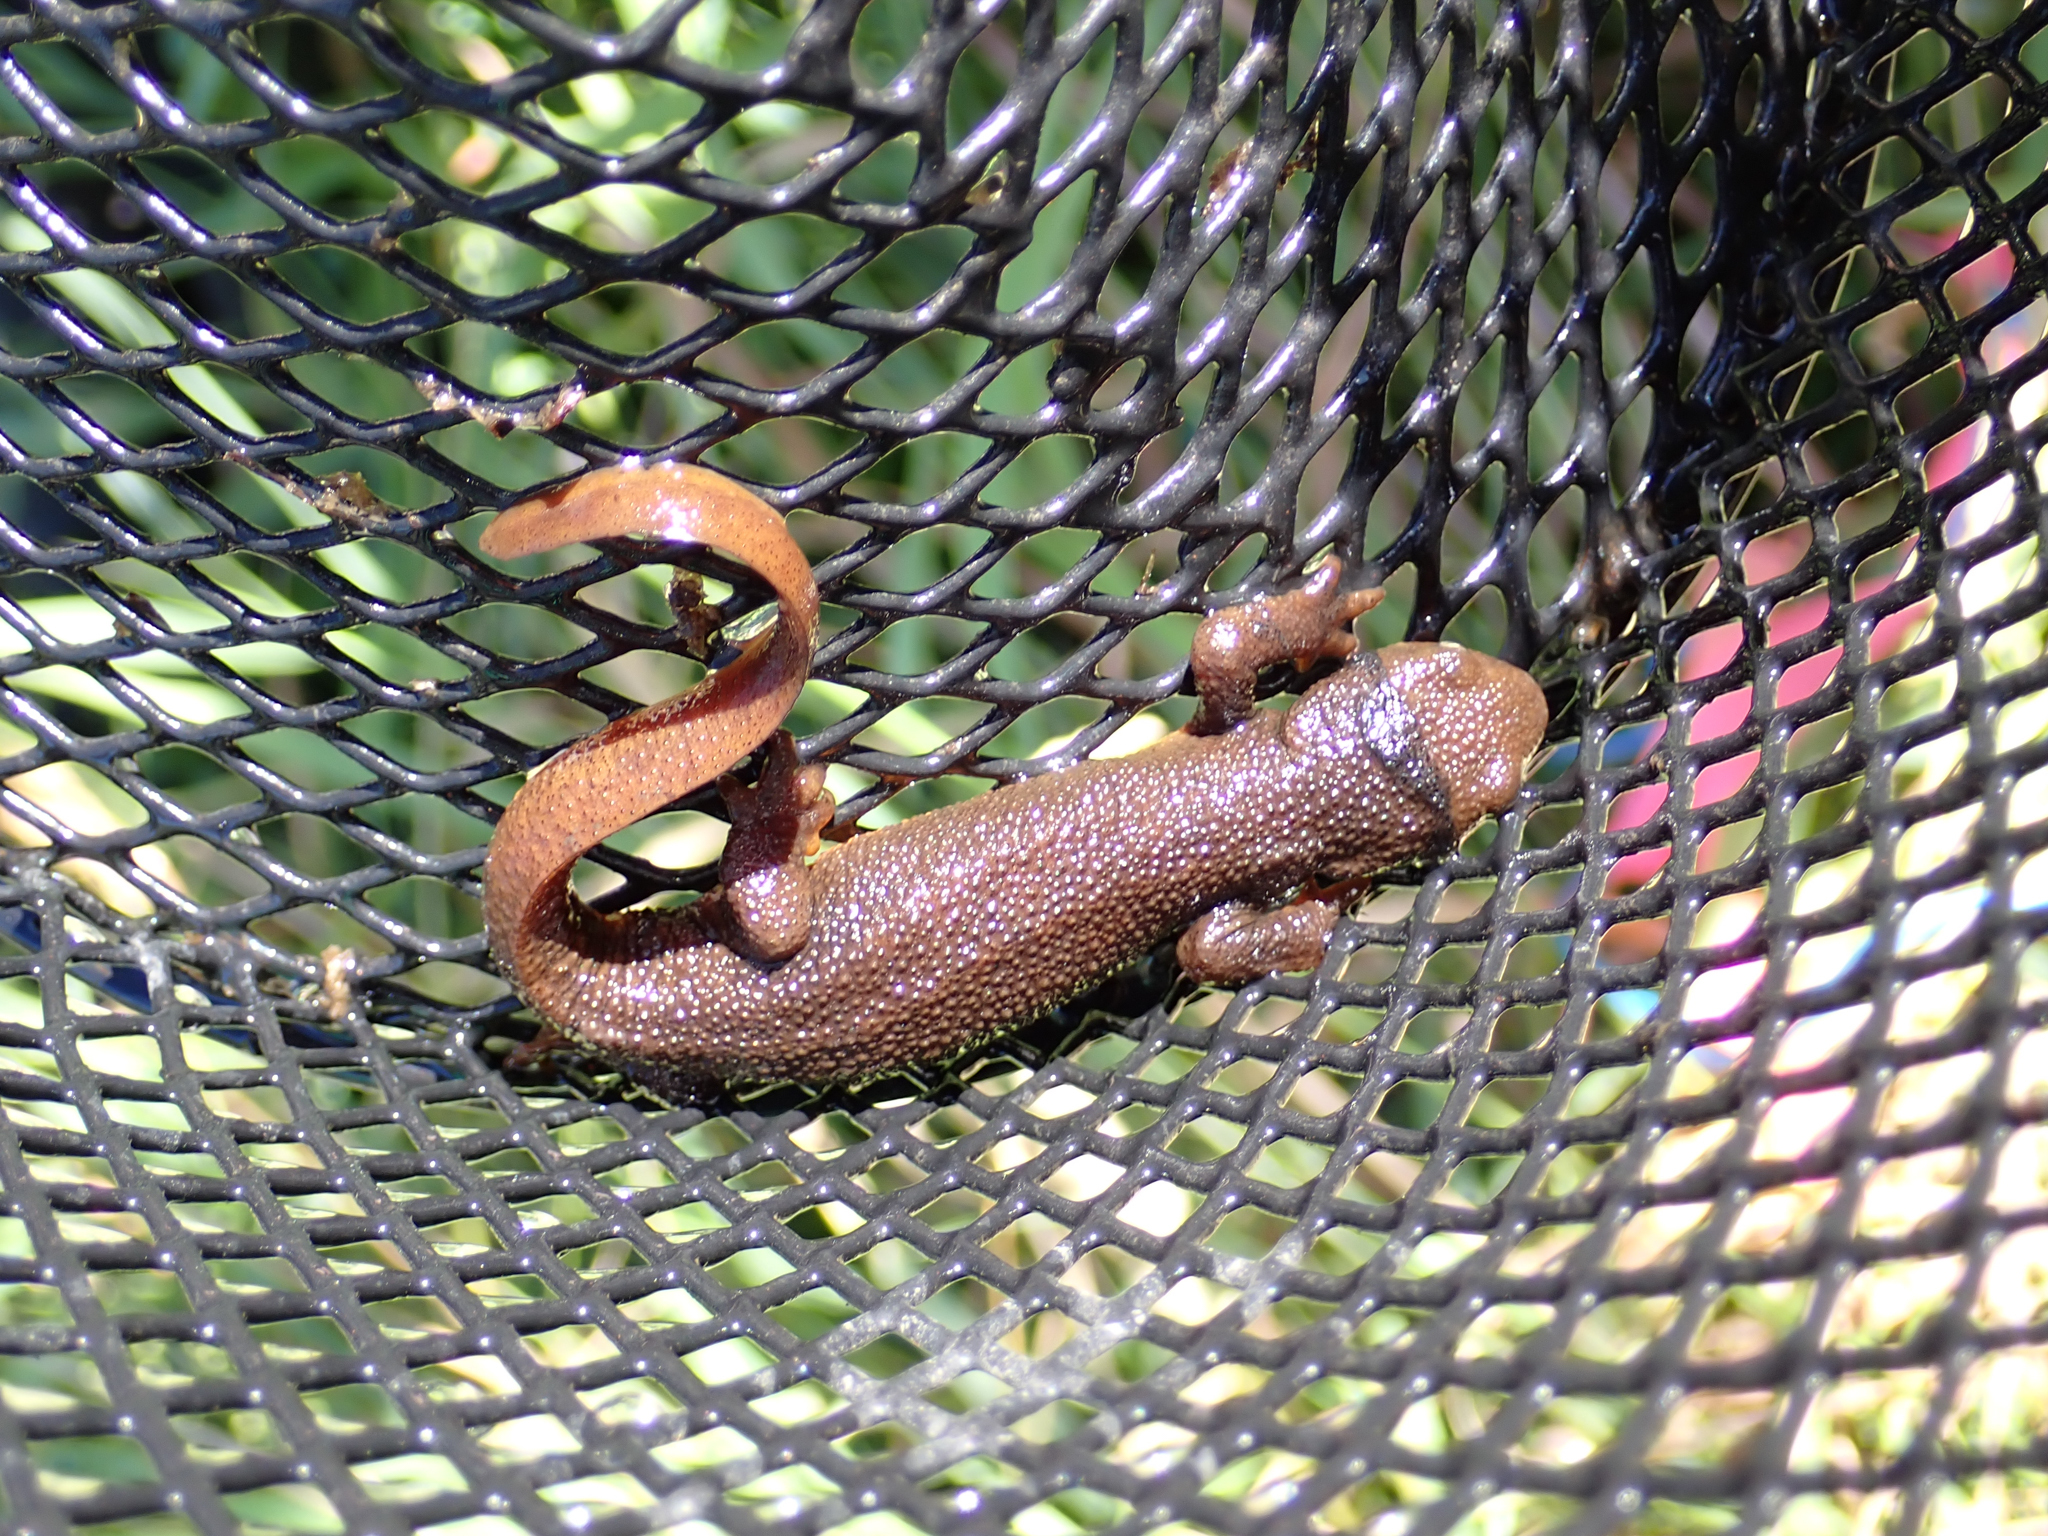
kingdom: Animalia
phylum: Chordata
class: Amphibia
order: Caudata
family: Salamandridae
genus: Taricha
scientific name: Taricha granulosa
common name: Roughskin newt
